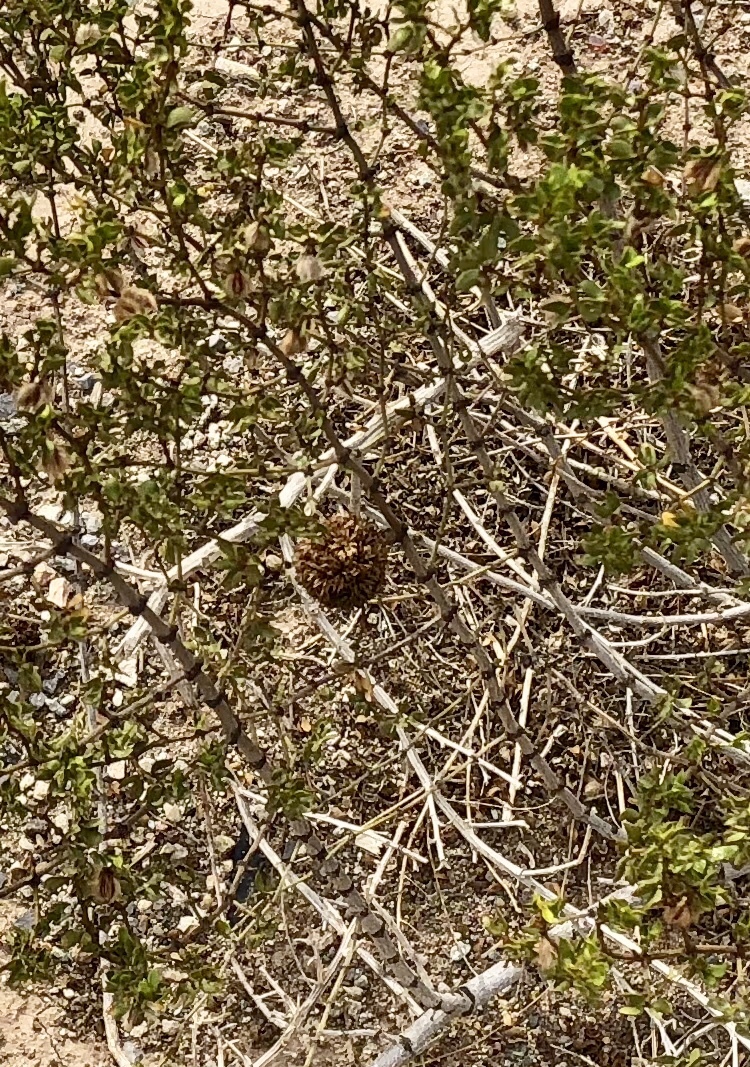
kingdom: Animalia
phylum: Arthropoda
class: Insecta
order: Diptera
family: Cecidomyiidae
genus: Asphondylia
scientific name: Asphondylia auripila
